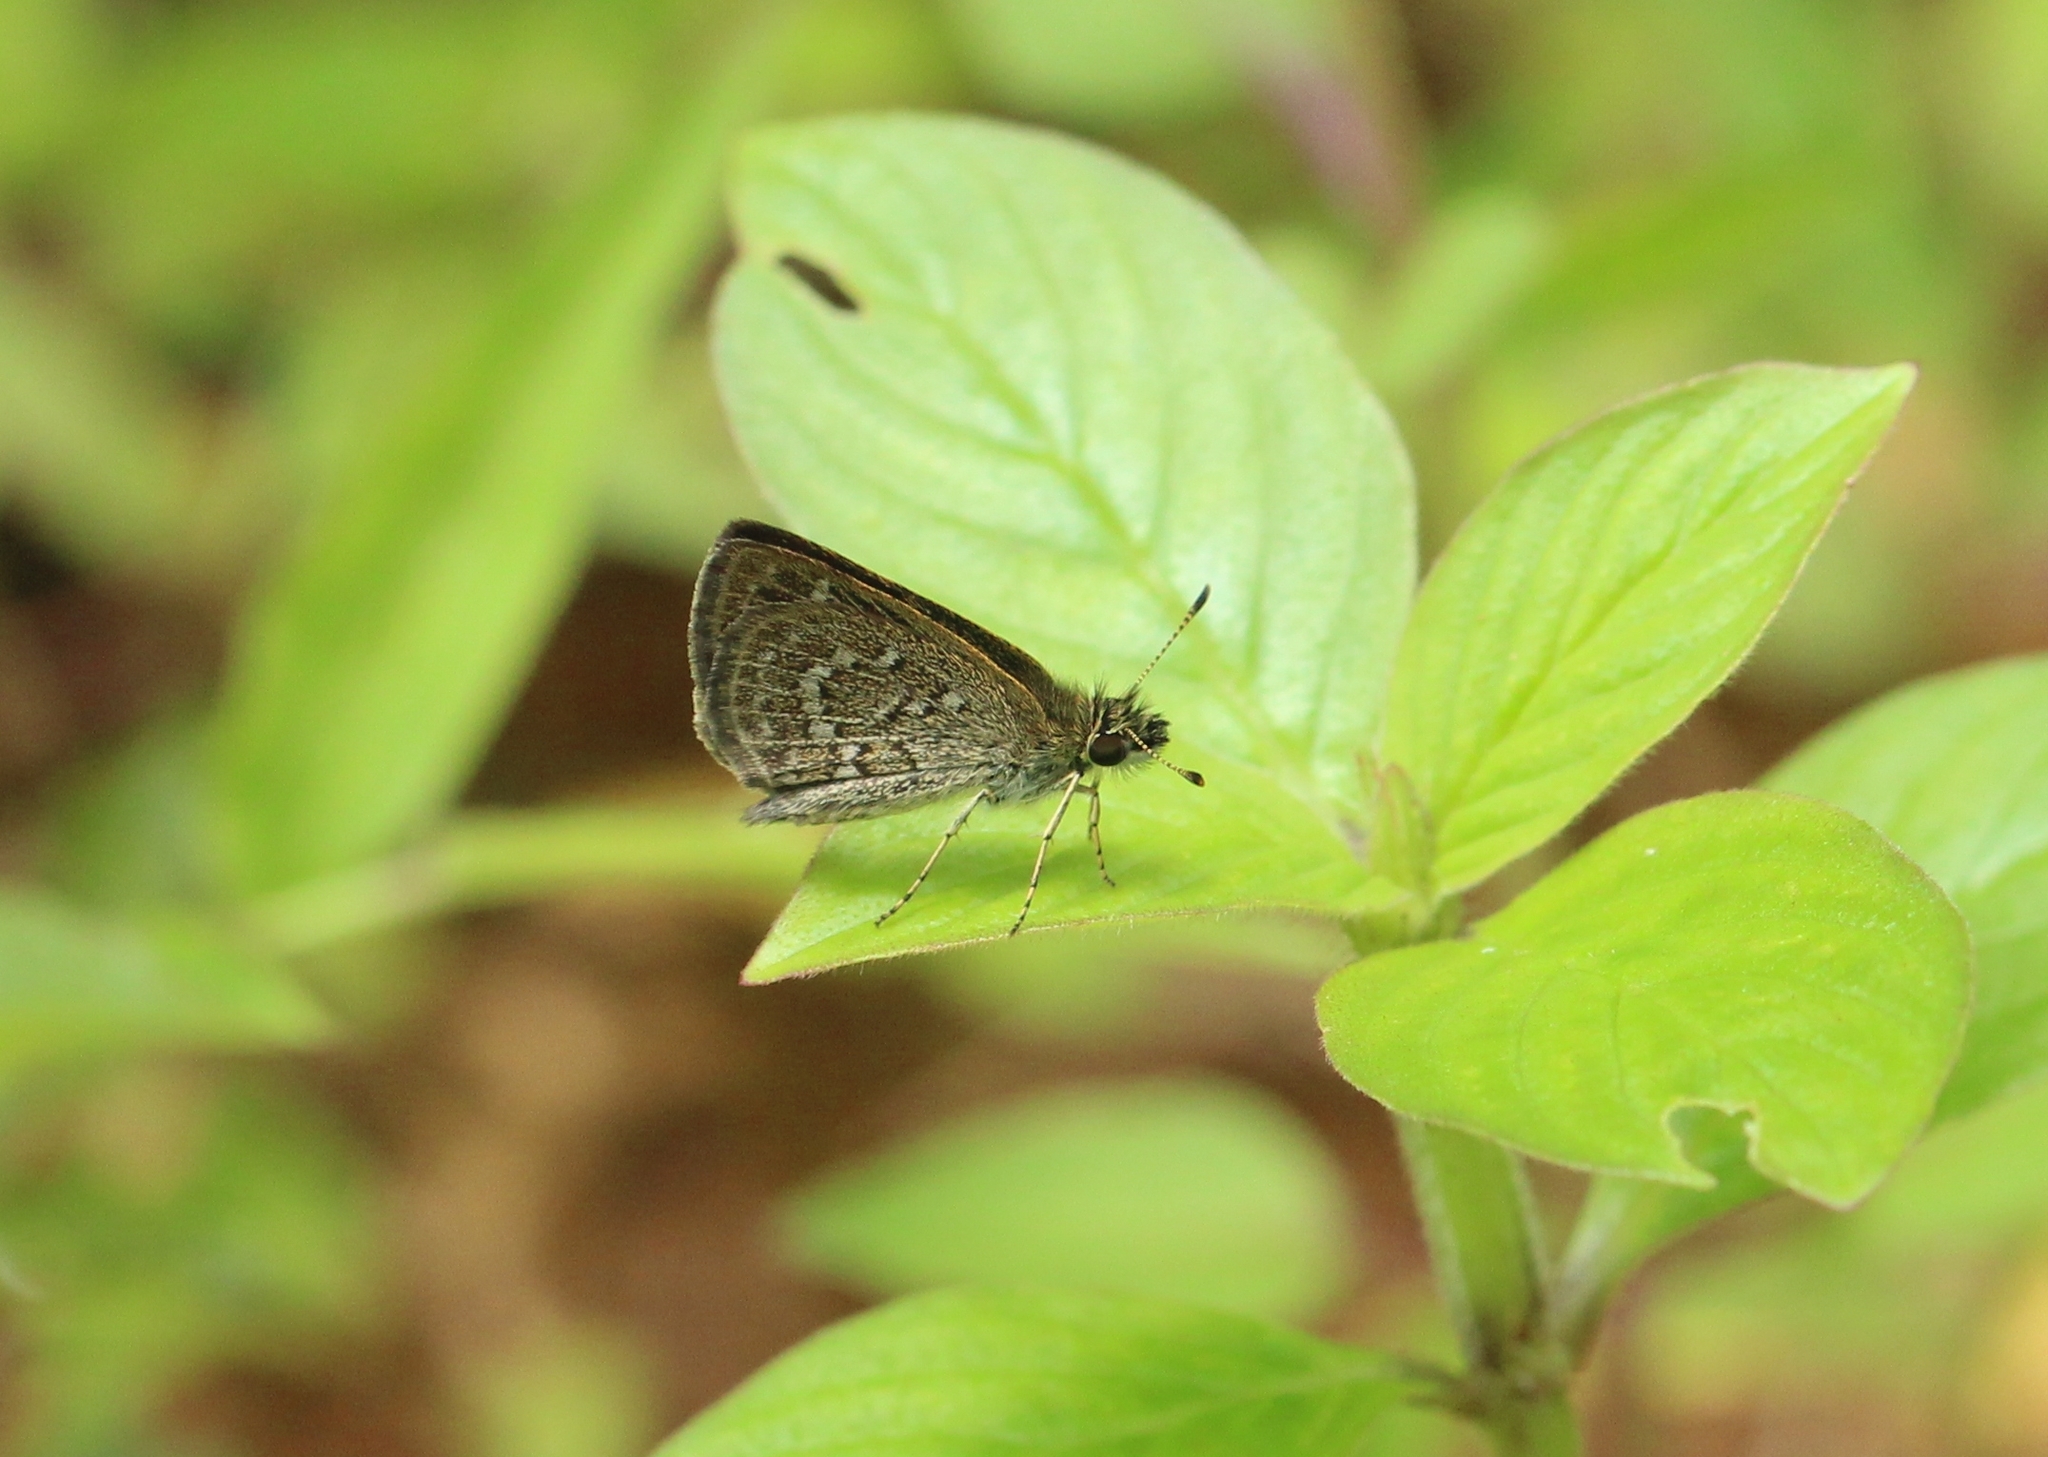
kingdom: Animalia
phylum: Arthropoda
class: Insecta
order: Lepidoptera
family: Hesperiidae
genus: Aeromachus
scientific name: Aeromachus pygmaeus
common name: Pygmy scrub hopper
